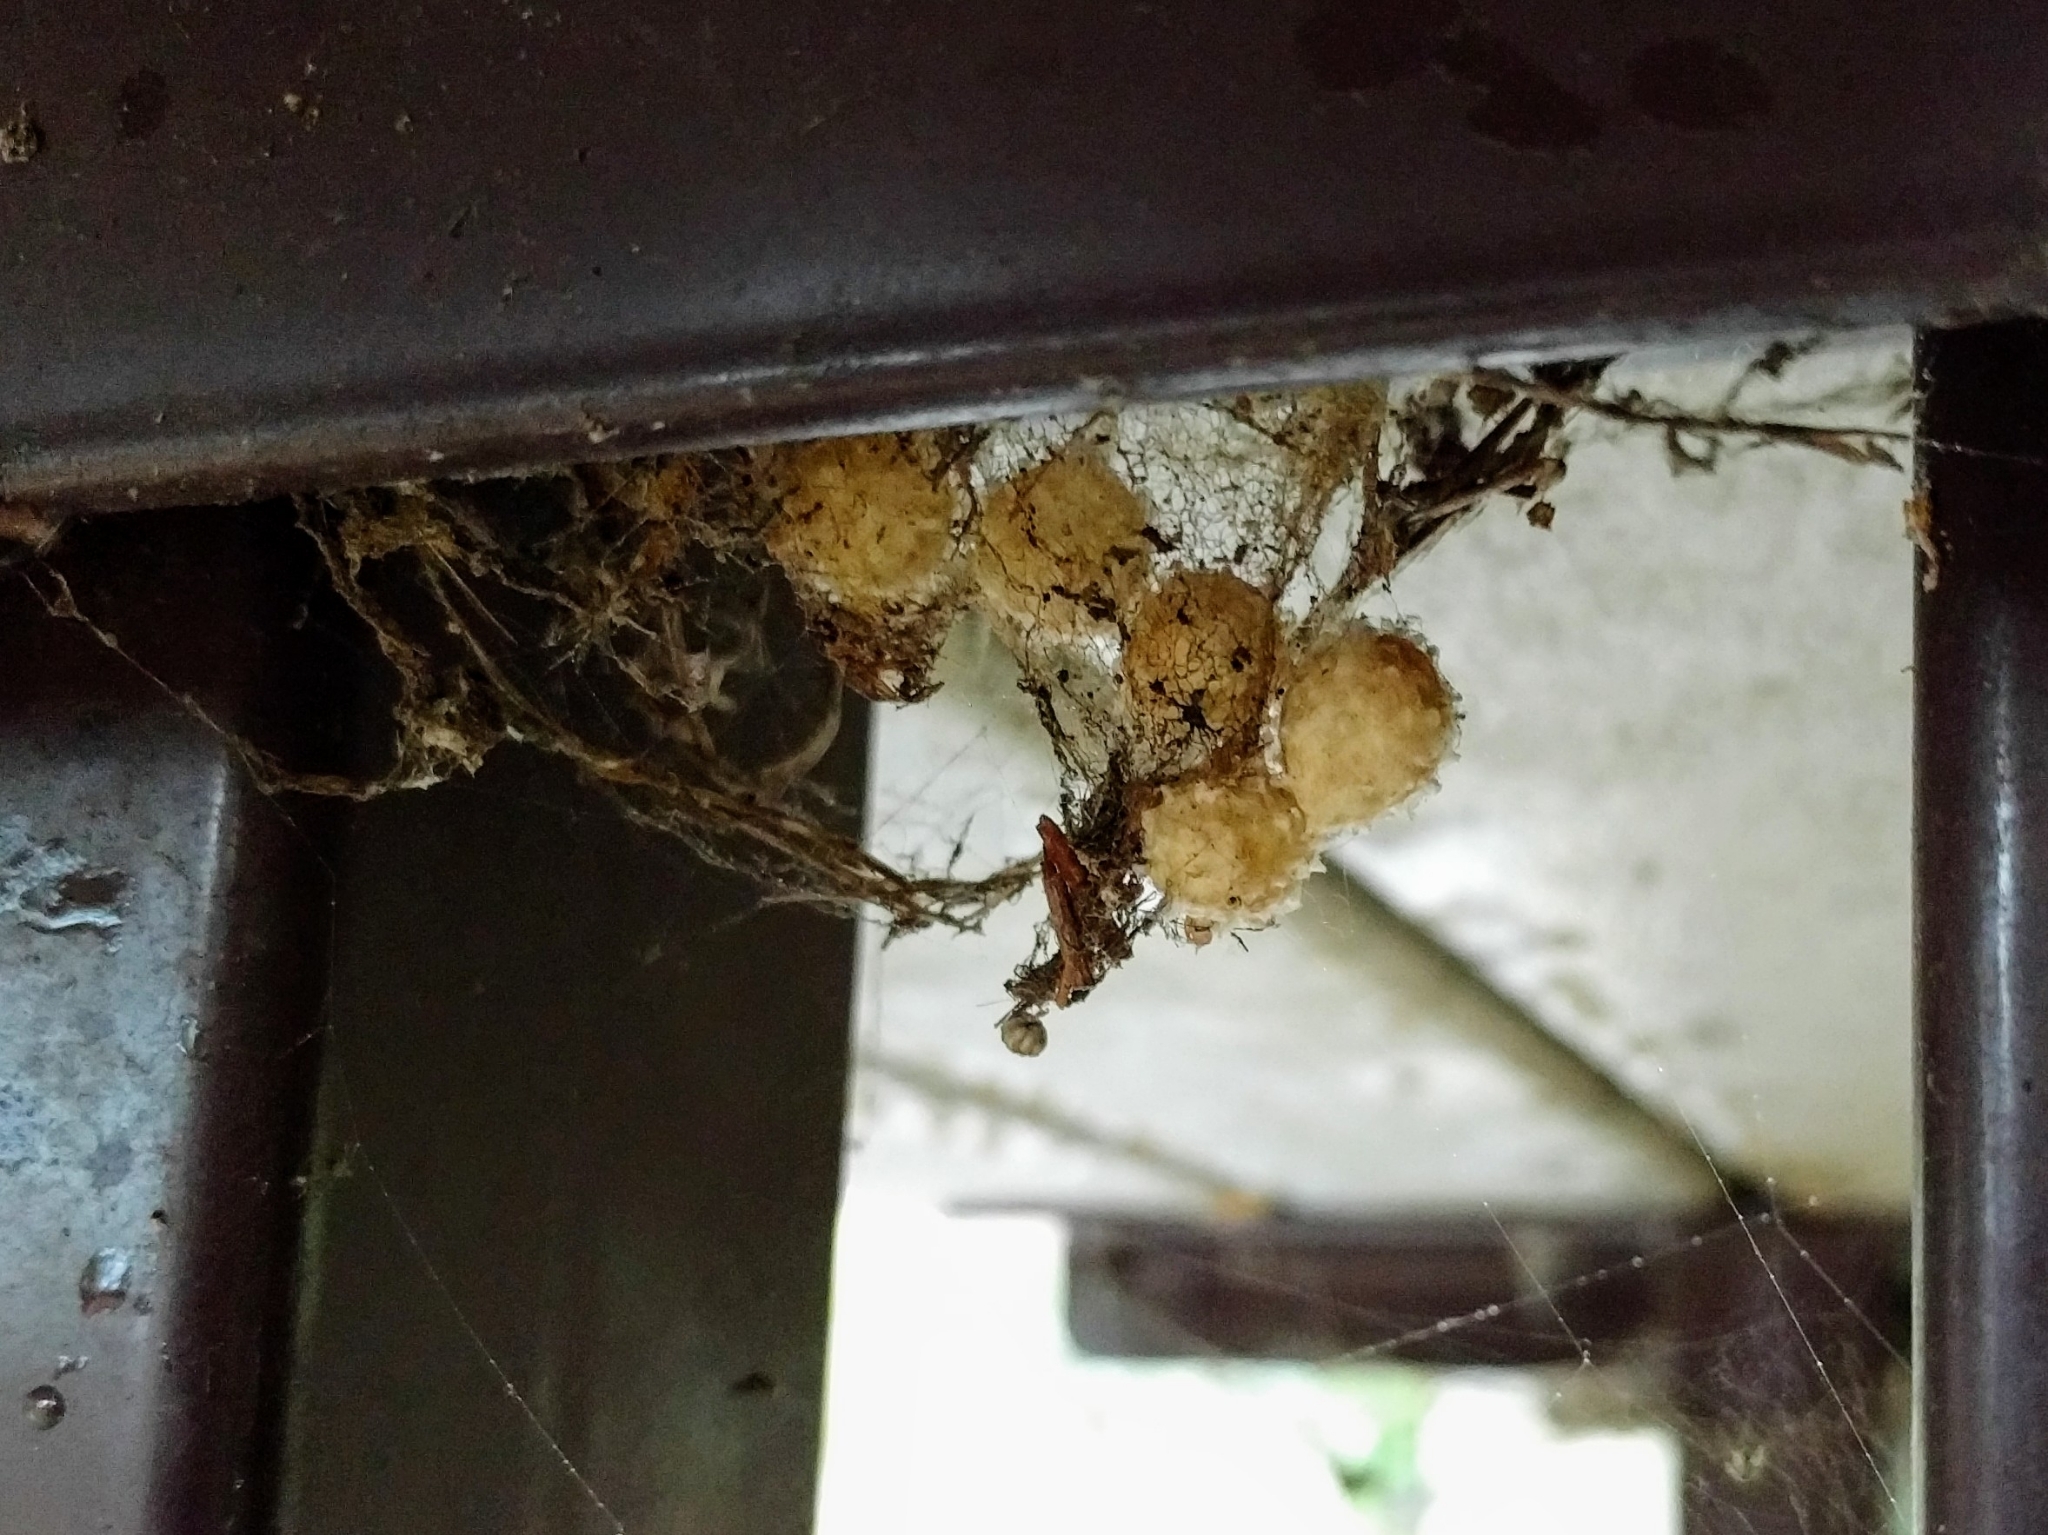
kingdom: Animalia
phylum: Arthropoda
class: Arachnida
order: Araneae
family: Theridiidae
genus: Latrodectus
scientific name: Latrodectus geometricus
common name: Brown widow spider
